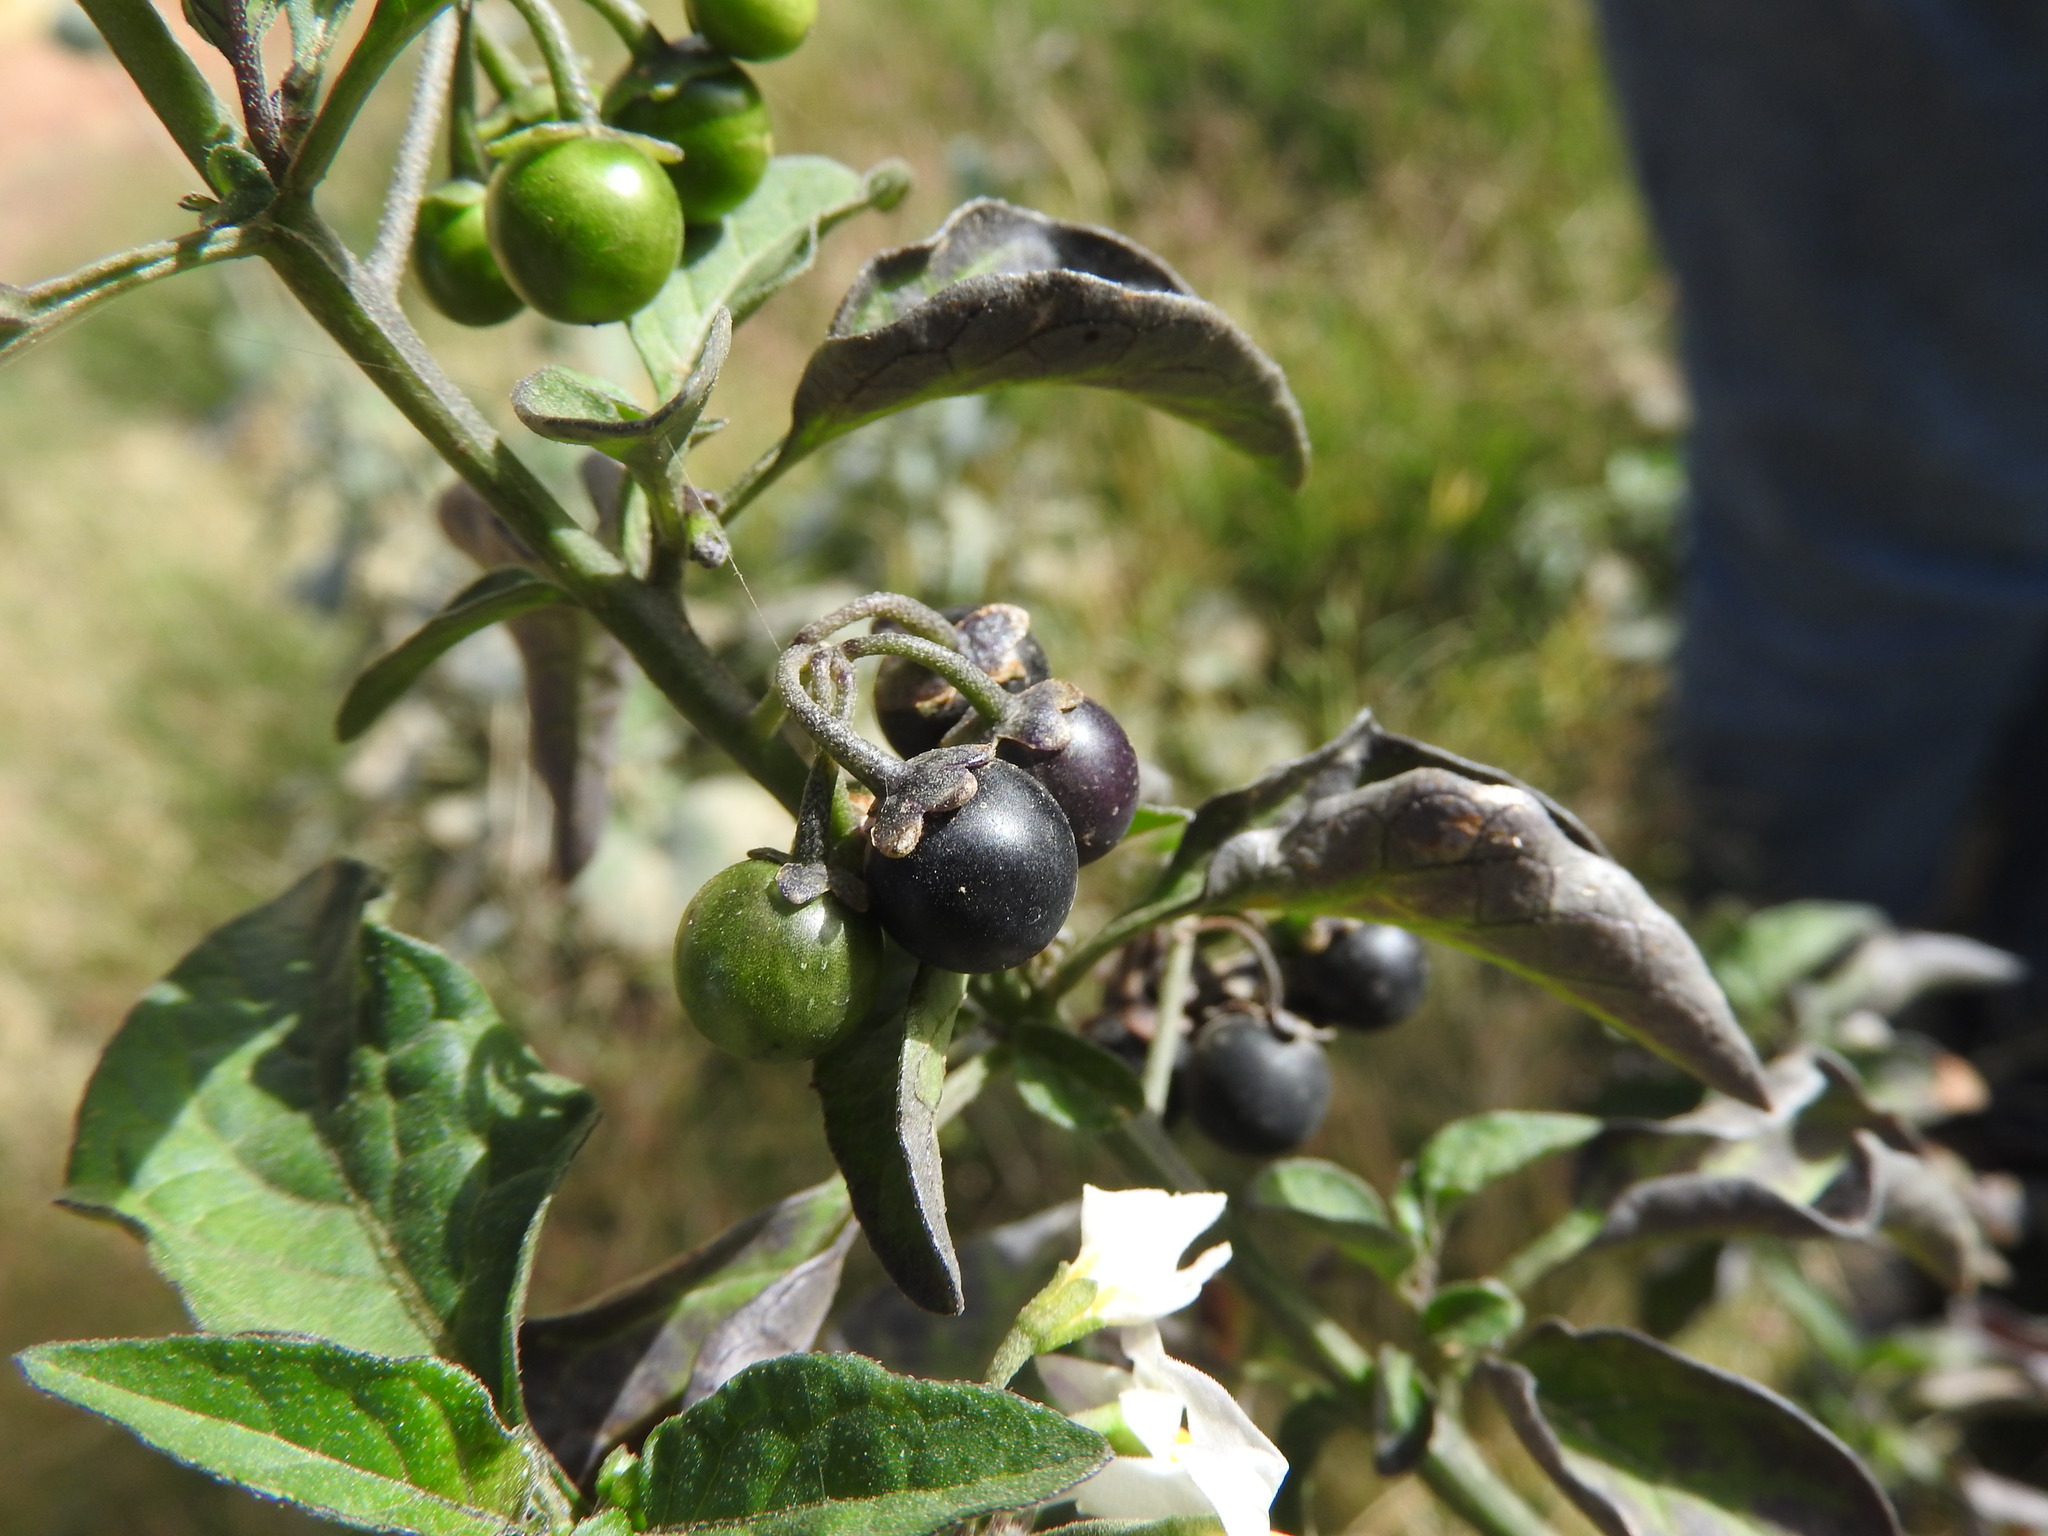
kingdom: Plantae
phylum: Tracheophyta
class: Magnoliopsida
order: Solanales
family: Solanaceae
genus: Solanum
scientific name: Solanum nigrum
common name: Black nightshade
